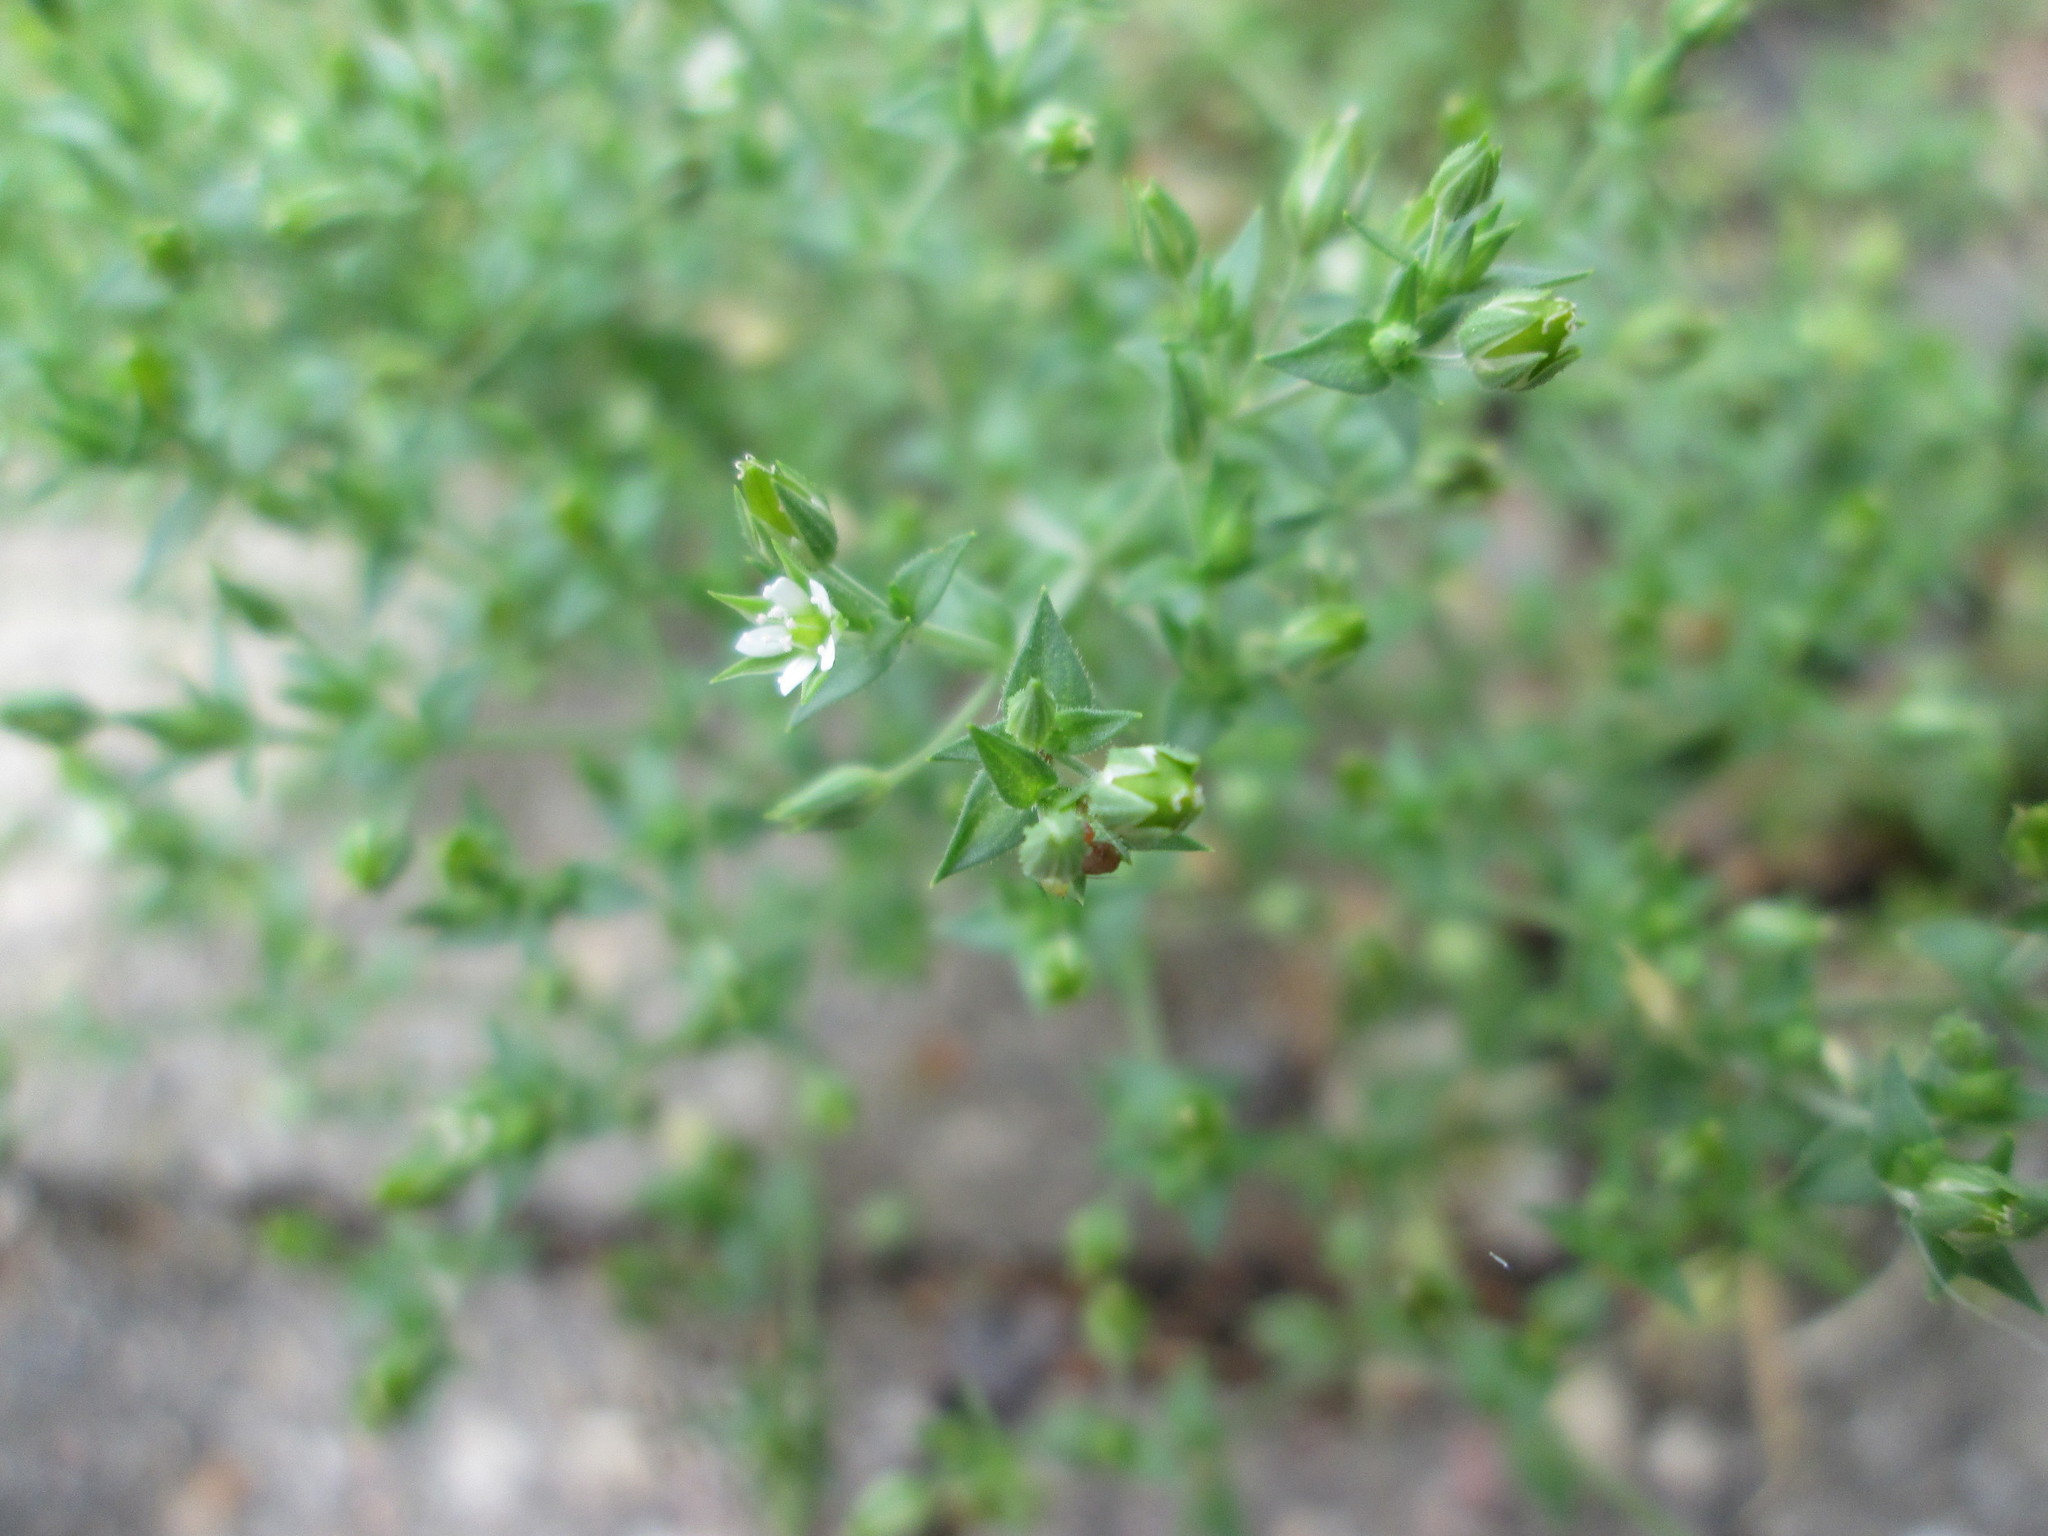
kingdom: Plantae
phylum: Tracheophyta
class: Magnoliopsida
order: Caryophyllales
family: Caryophyllaceae
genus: Arenaria
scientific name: Arenaria serpyllifolia
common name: Thyme-leaved sandwort
